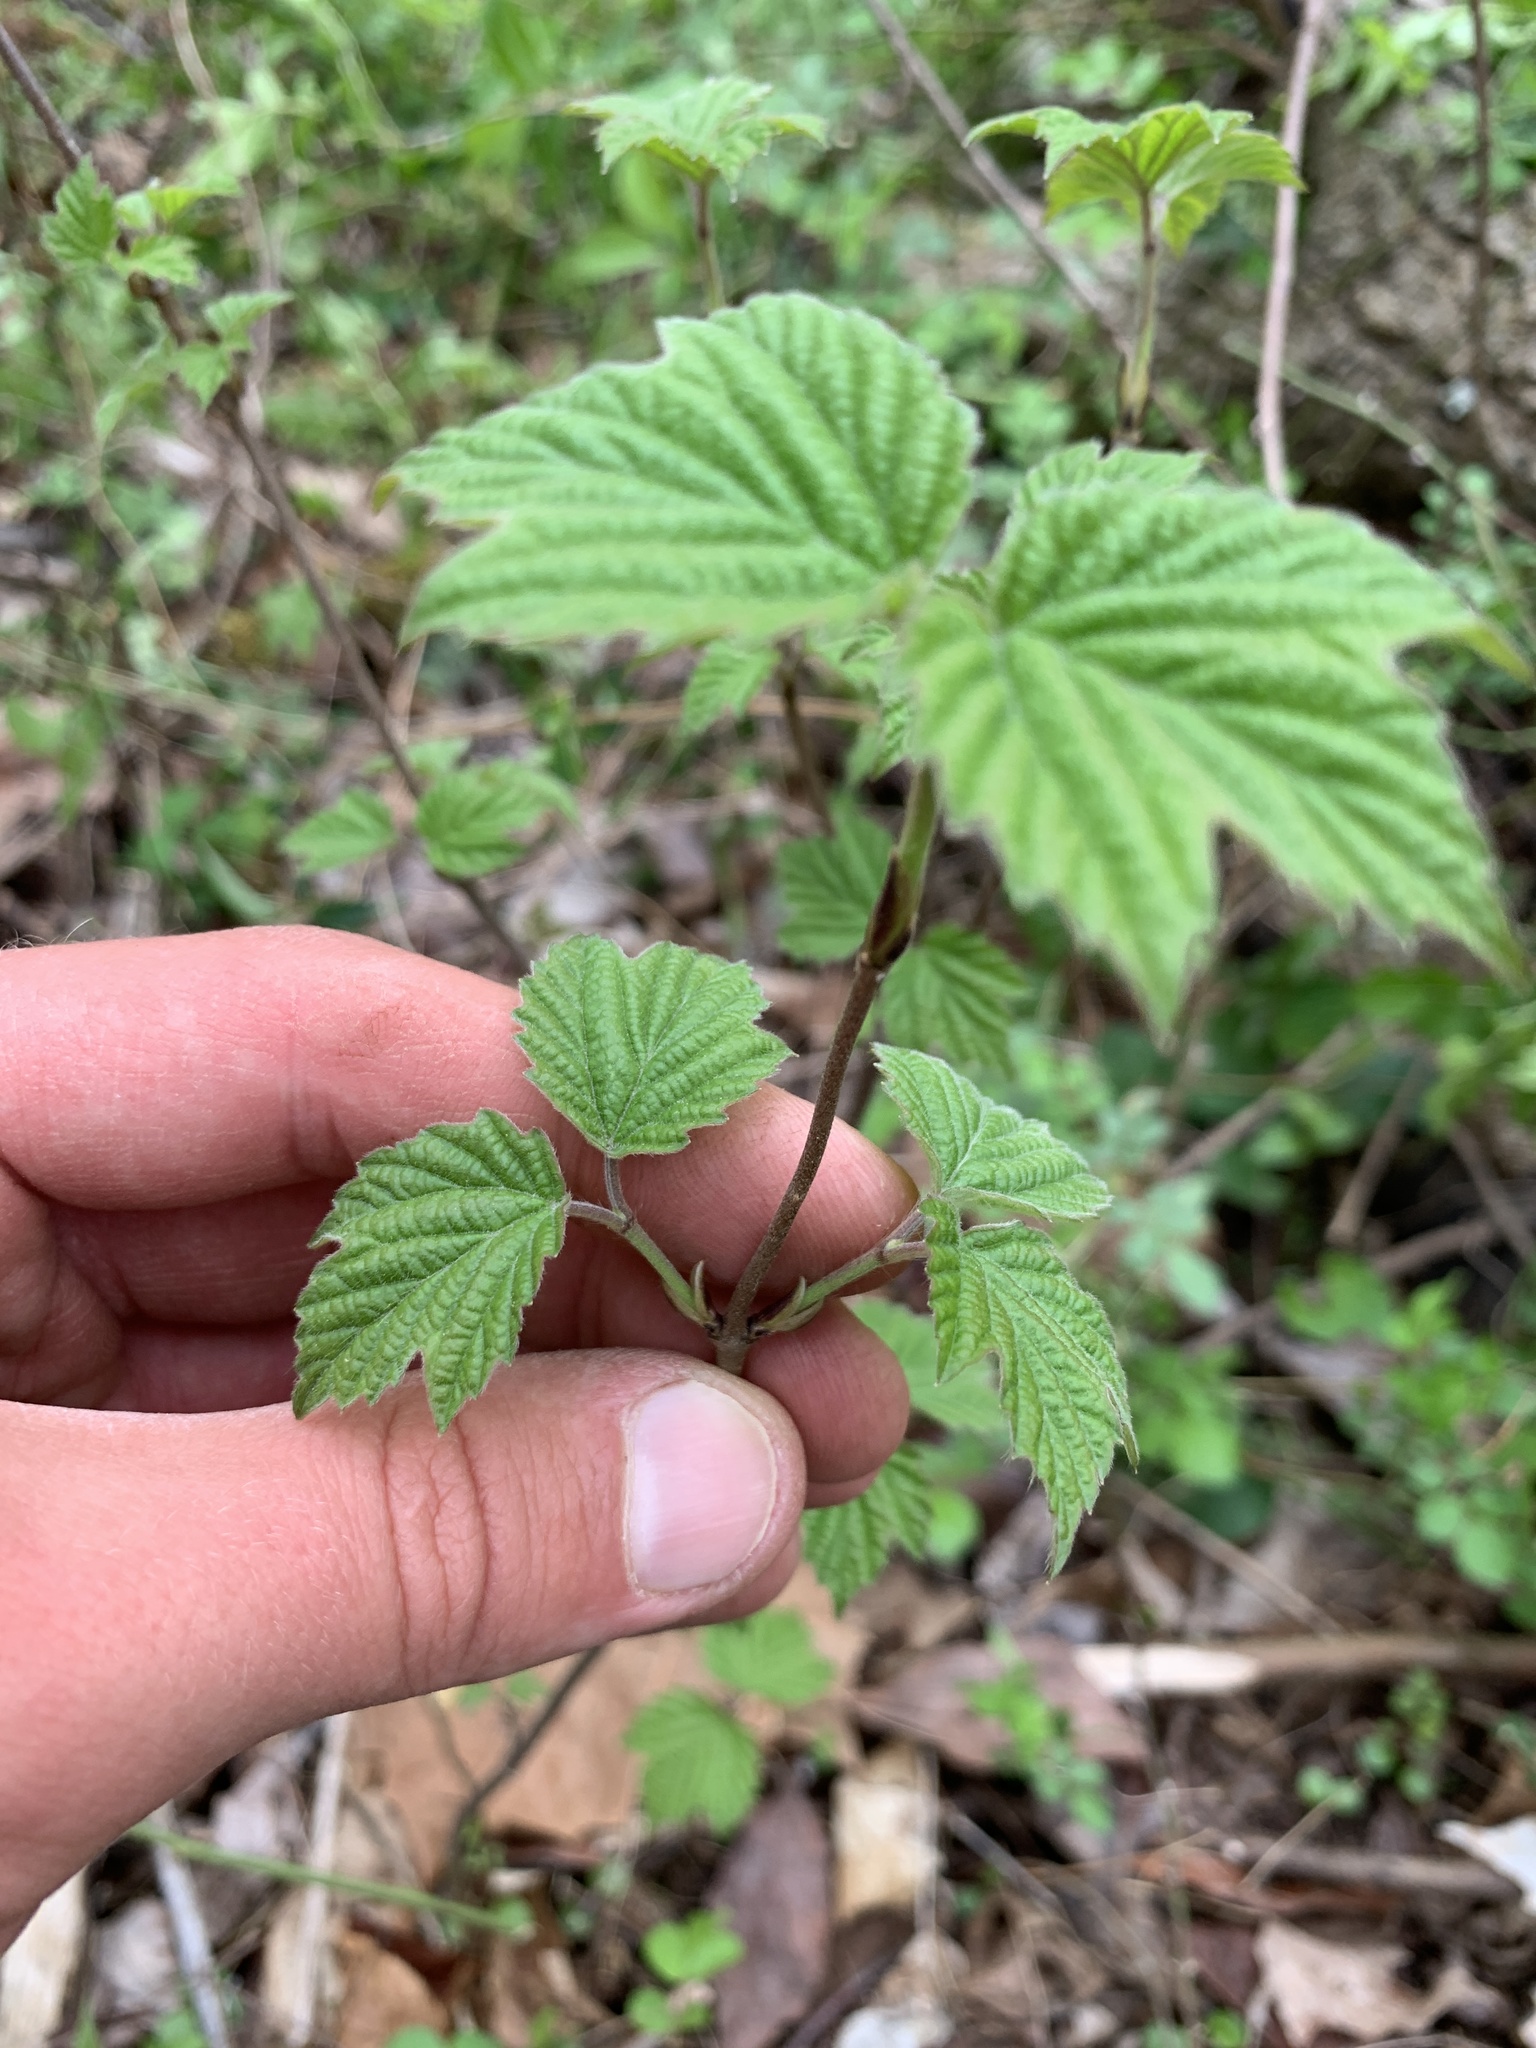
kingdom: Plantae
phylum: Tracheophyta
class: Magnoliopsida
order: Dipsacales
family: Viburnaceae
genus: Viburnum
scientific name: Viburnum acerifolium
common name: Dockmackie
